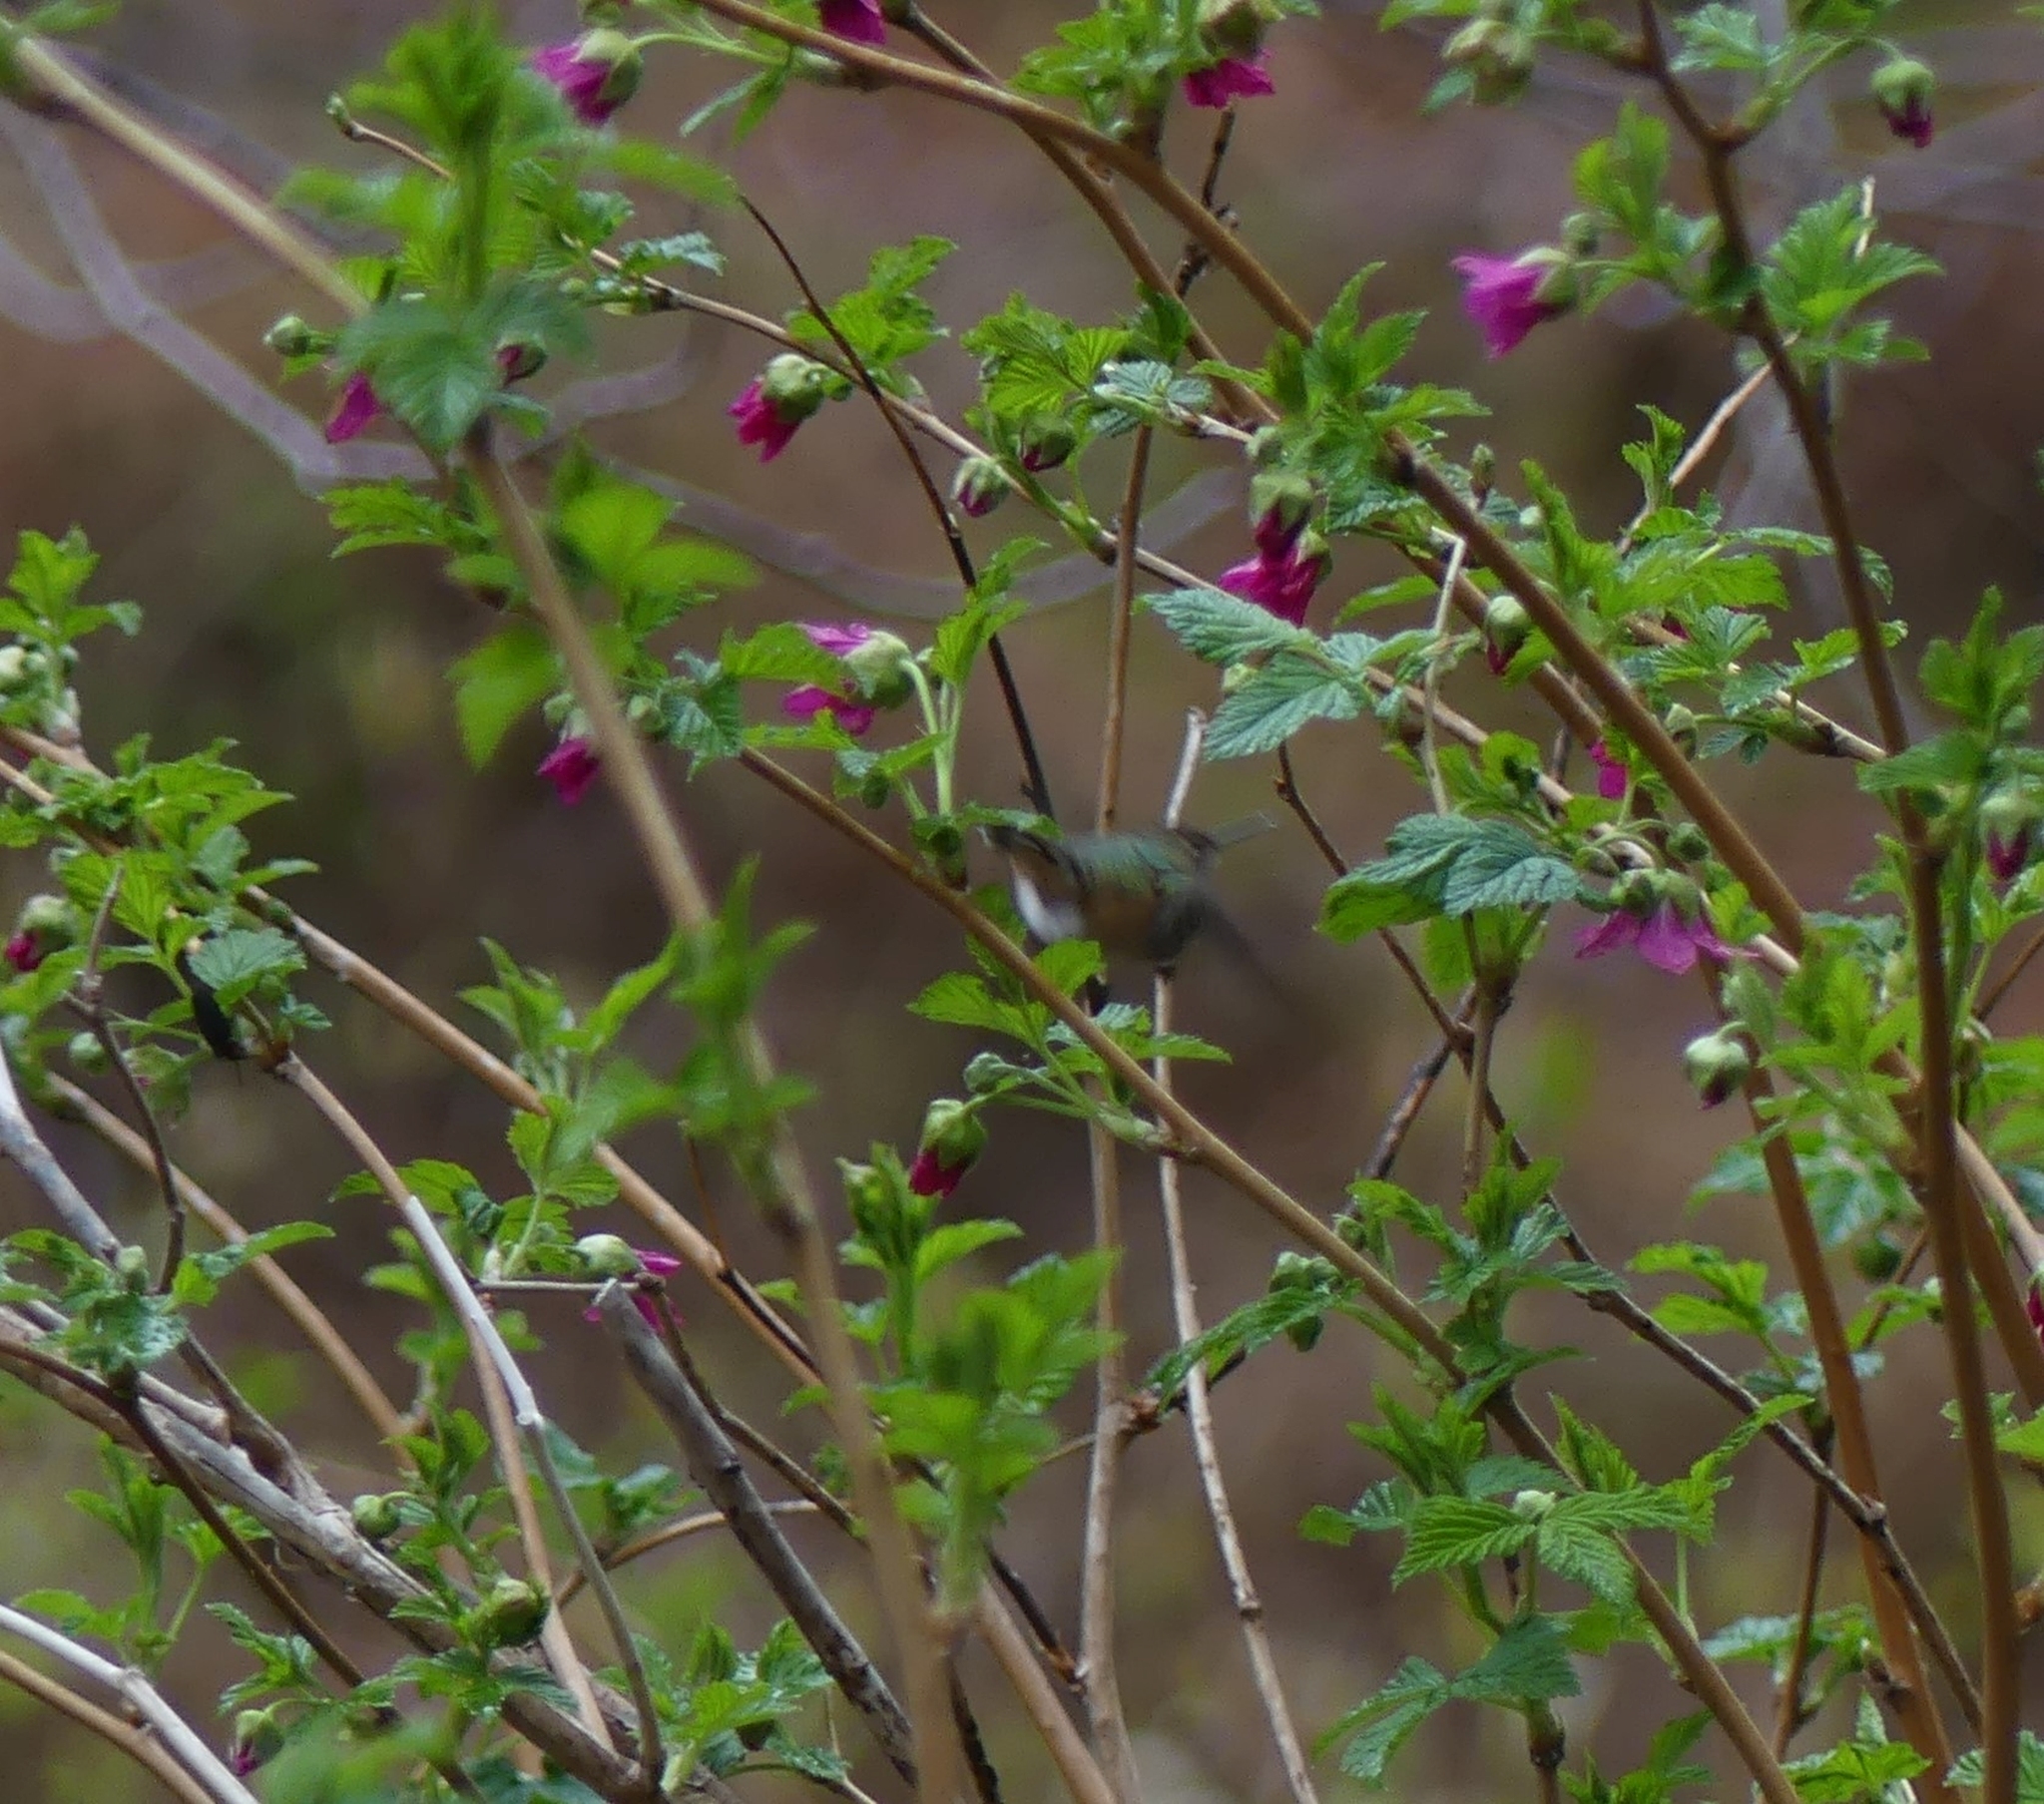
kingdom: Animalia
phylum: Chordata
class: Aves
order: Apodiformes
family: Trochilidae
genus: Selasphorus
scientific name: Selasphorus rufus
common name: Rufous hummingbird
